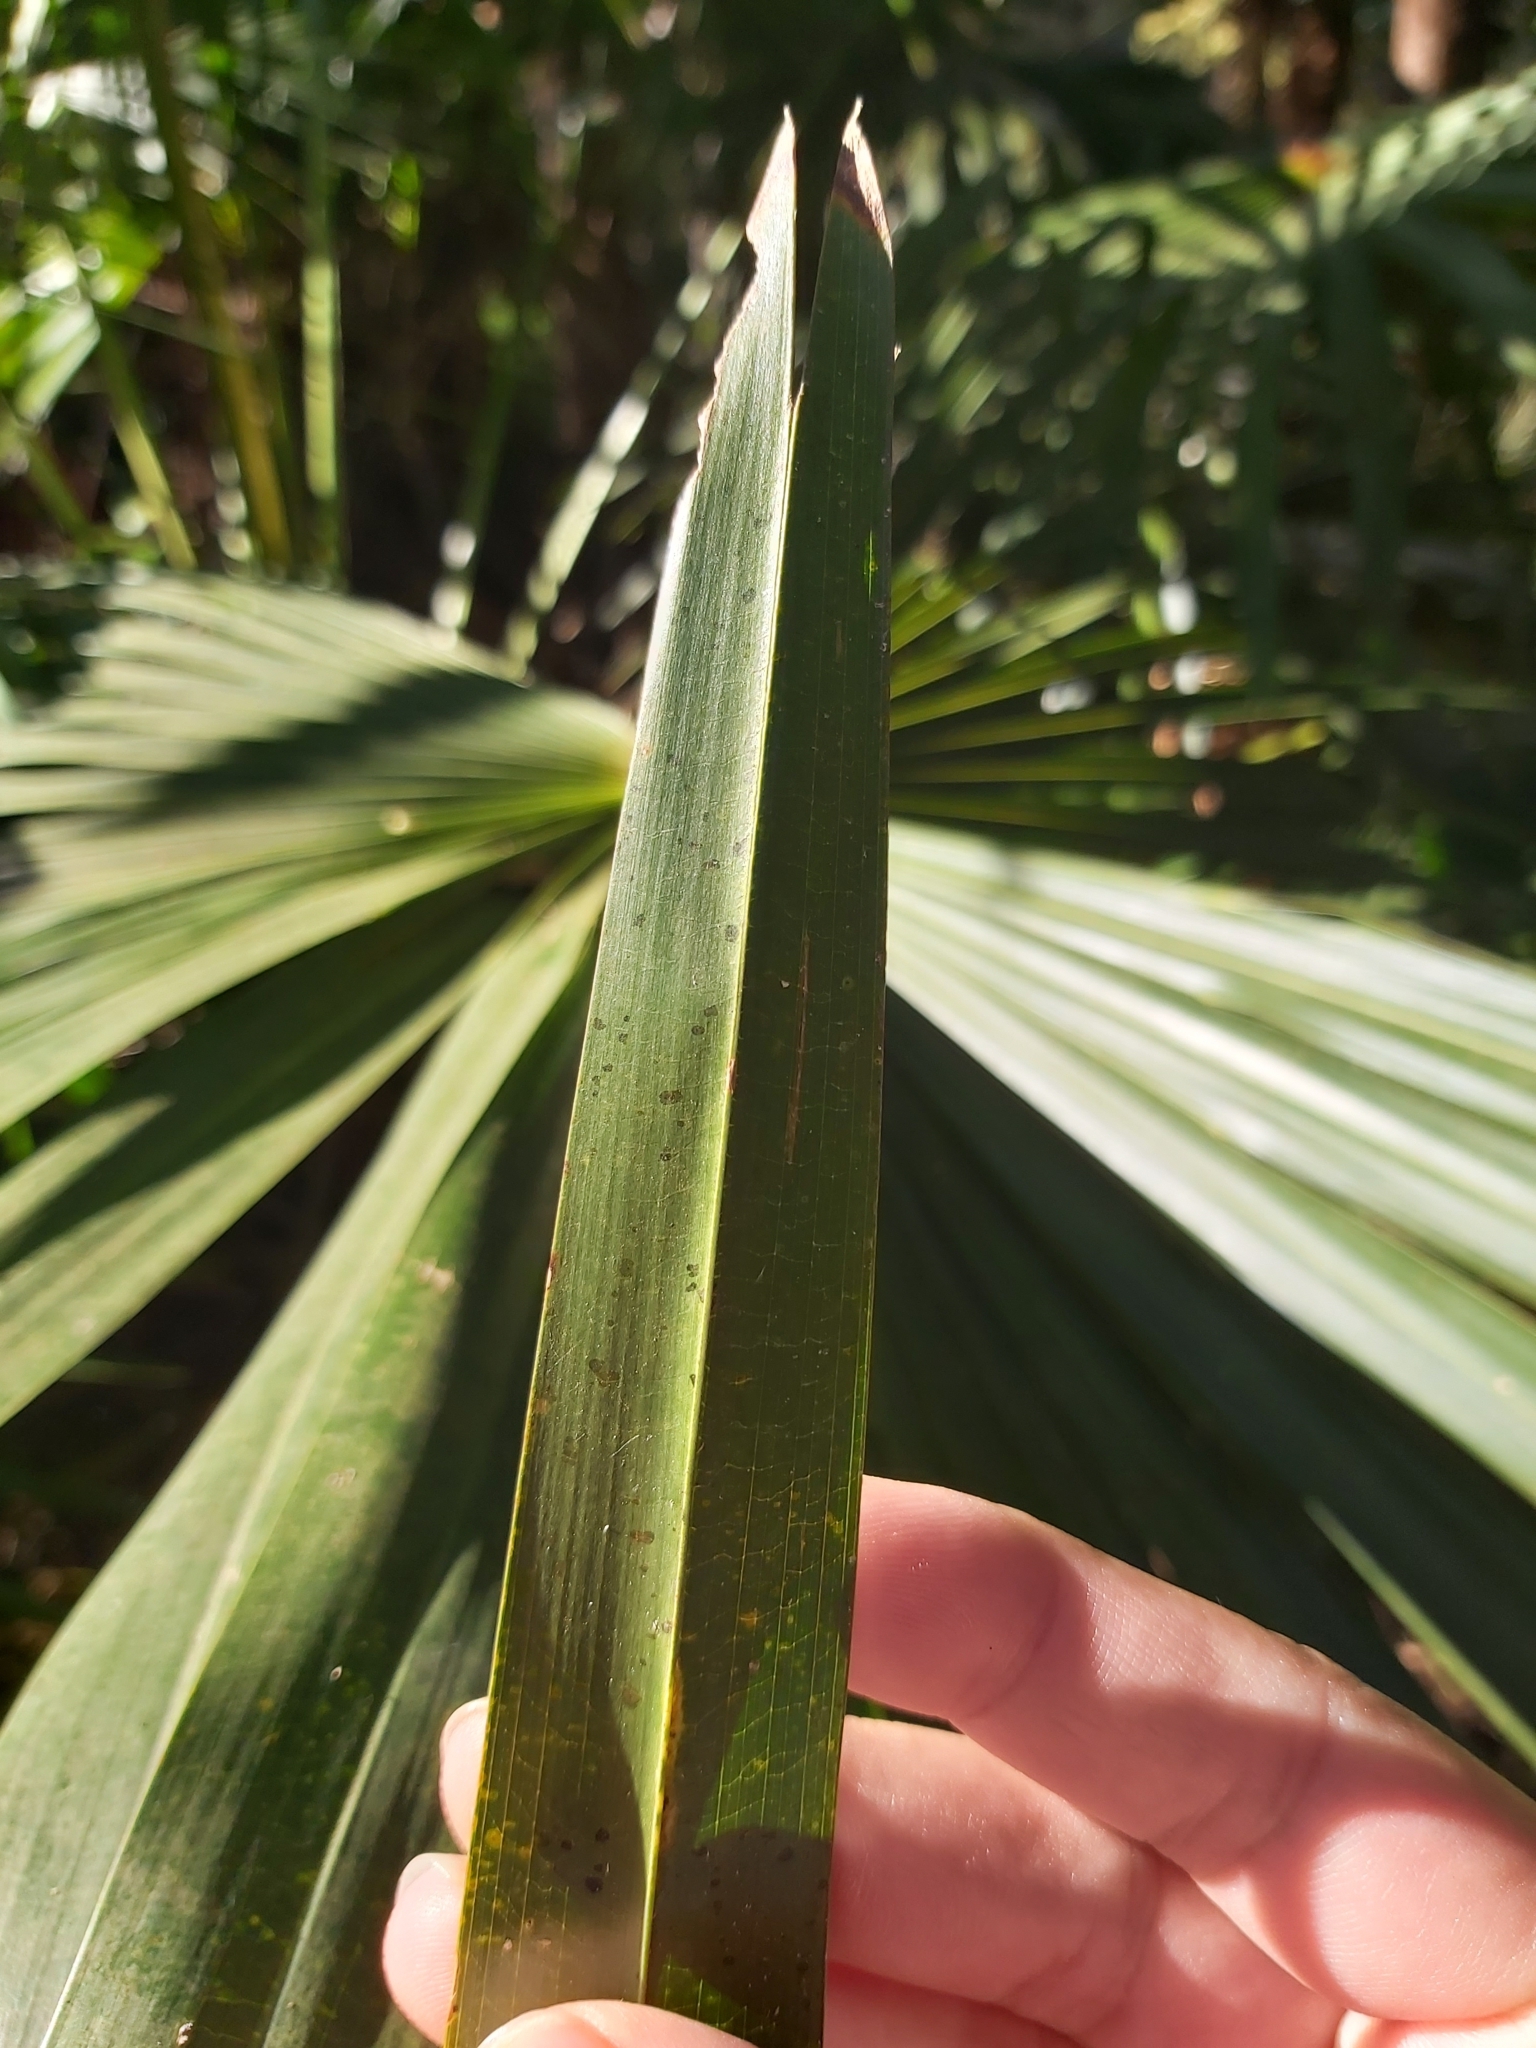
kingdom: Plantae
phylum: Tracheophyta
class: Liliopsida
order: Arecales
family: Arecaceae
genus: Livistona
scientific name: Livistona australis
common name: Cabbage fan palm
